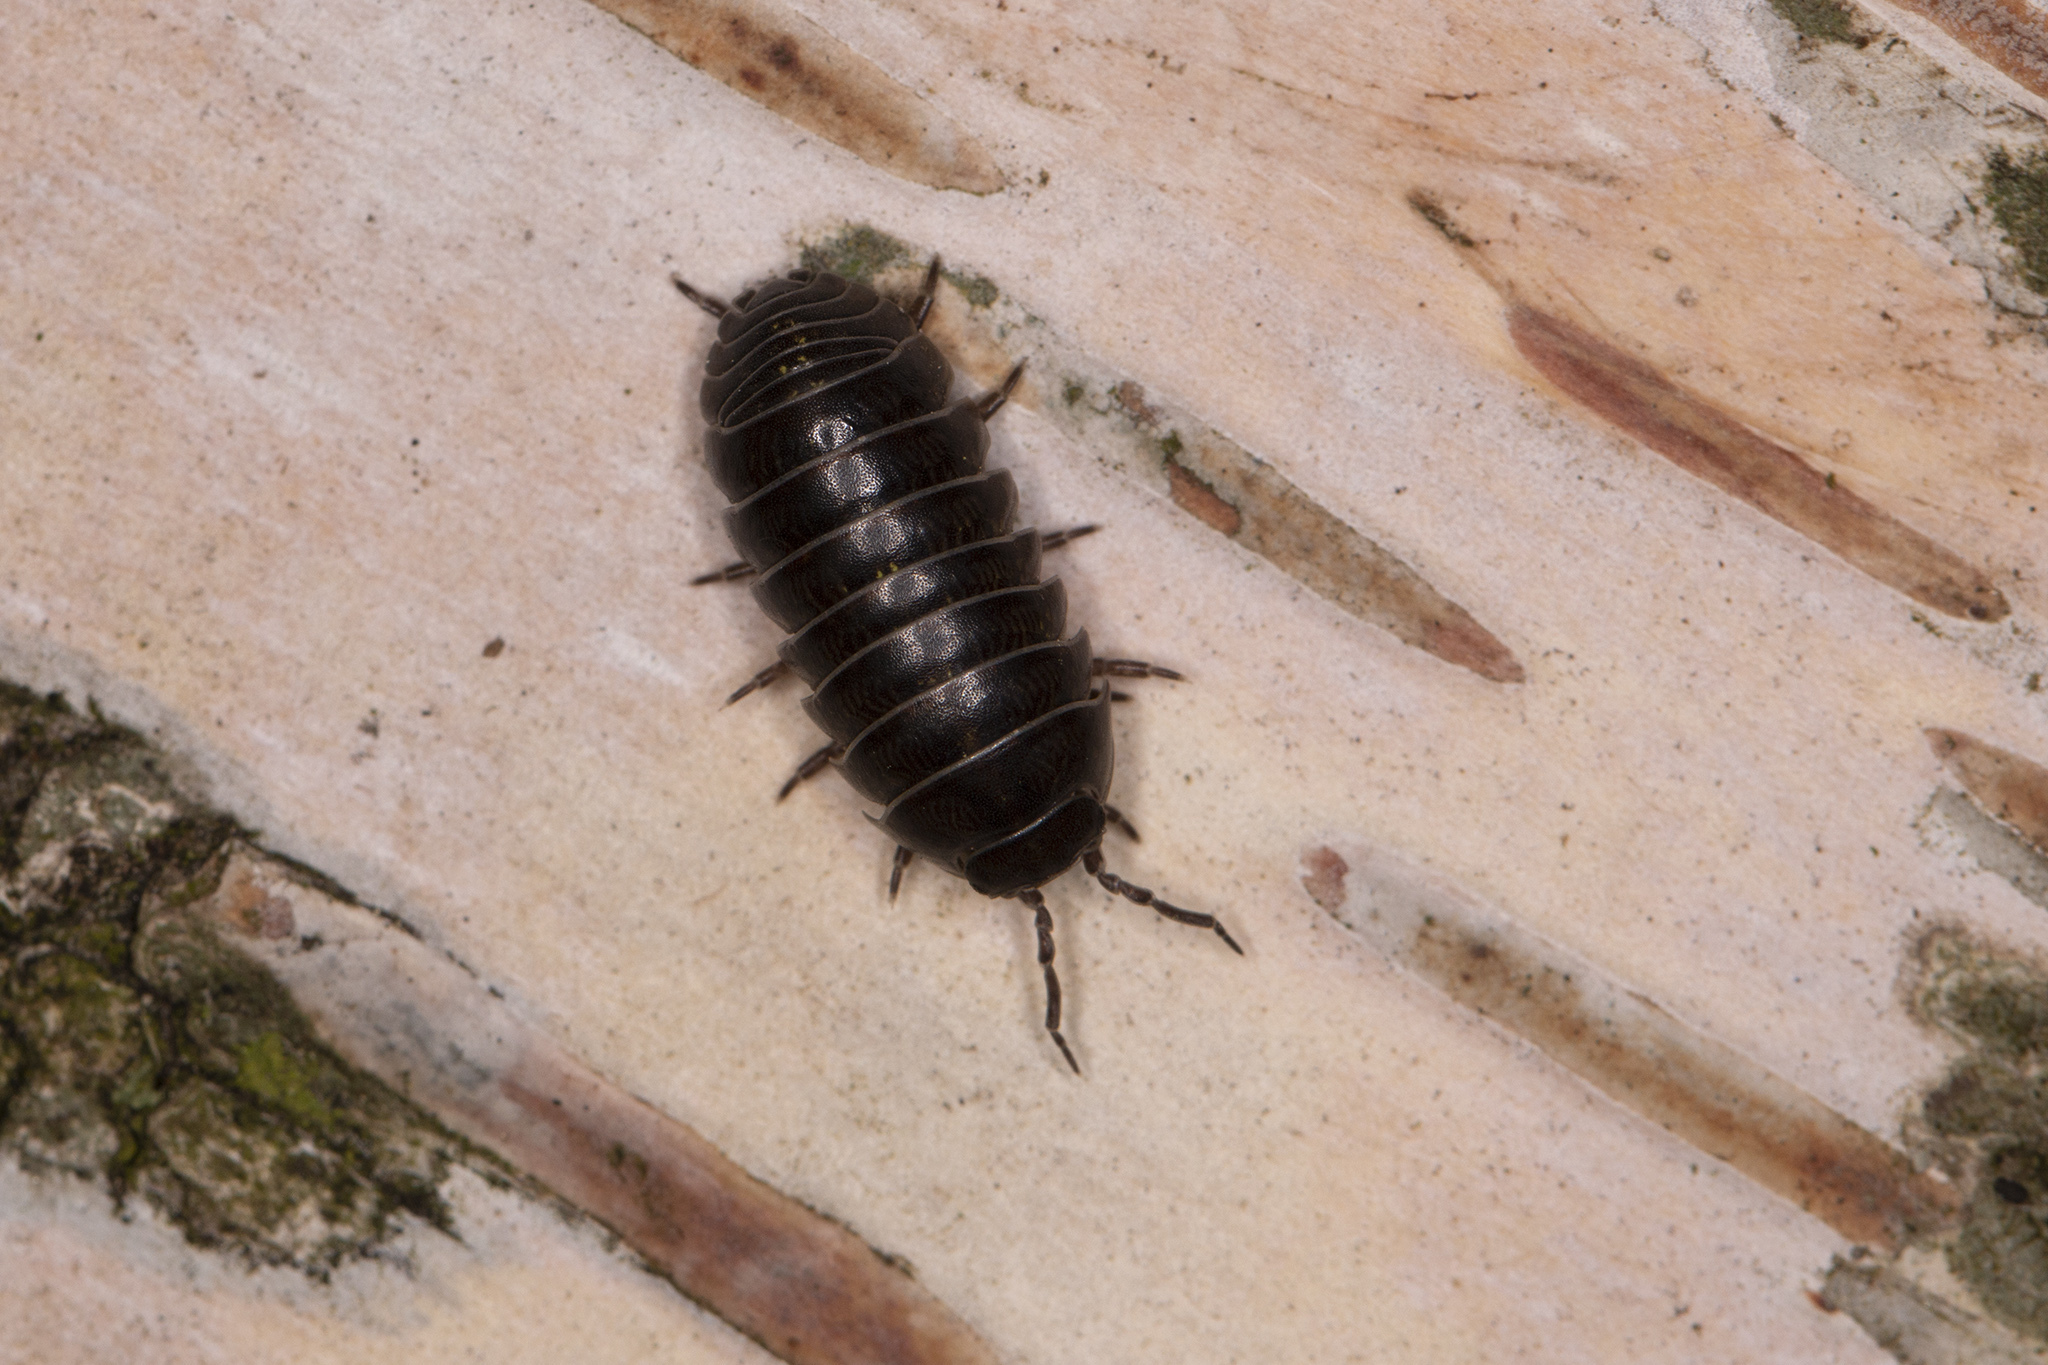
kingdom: Animalia
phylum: Arthropoda
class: Malacostraca
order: Isopoda
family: Armadillidiidae
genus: Armadillidium
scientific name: Armadillidium vulgare
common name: Common pill woodlouse
